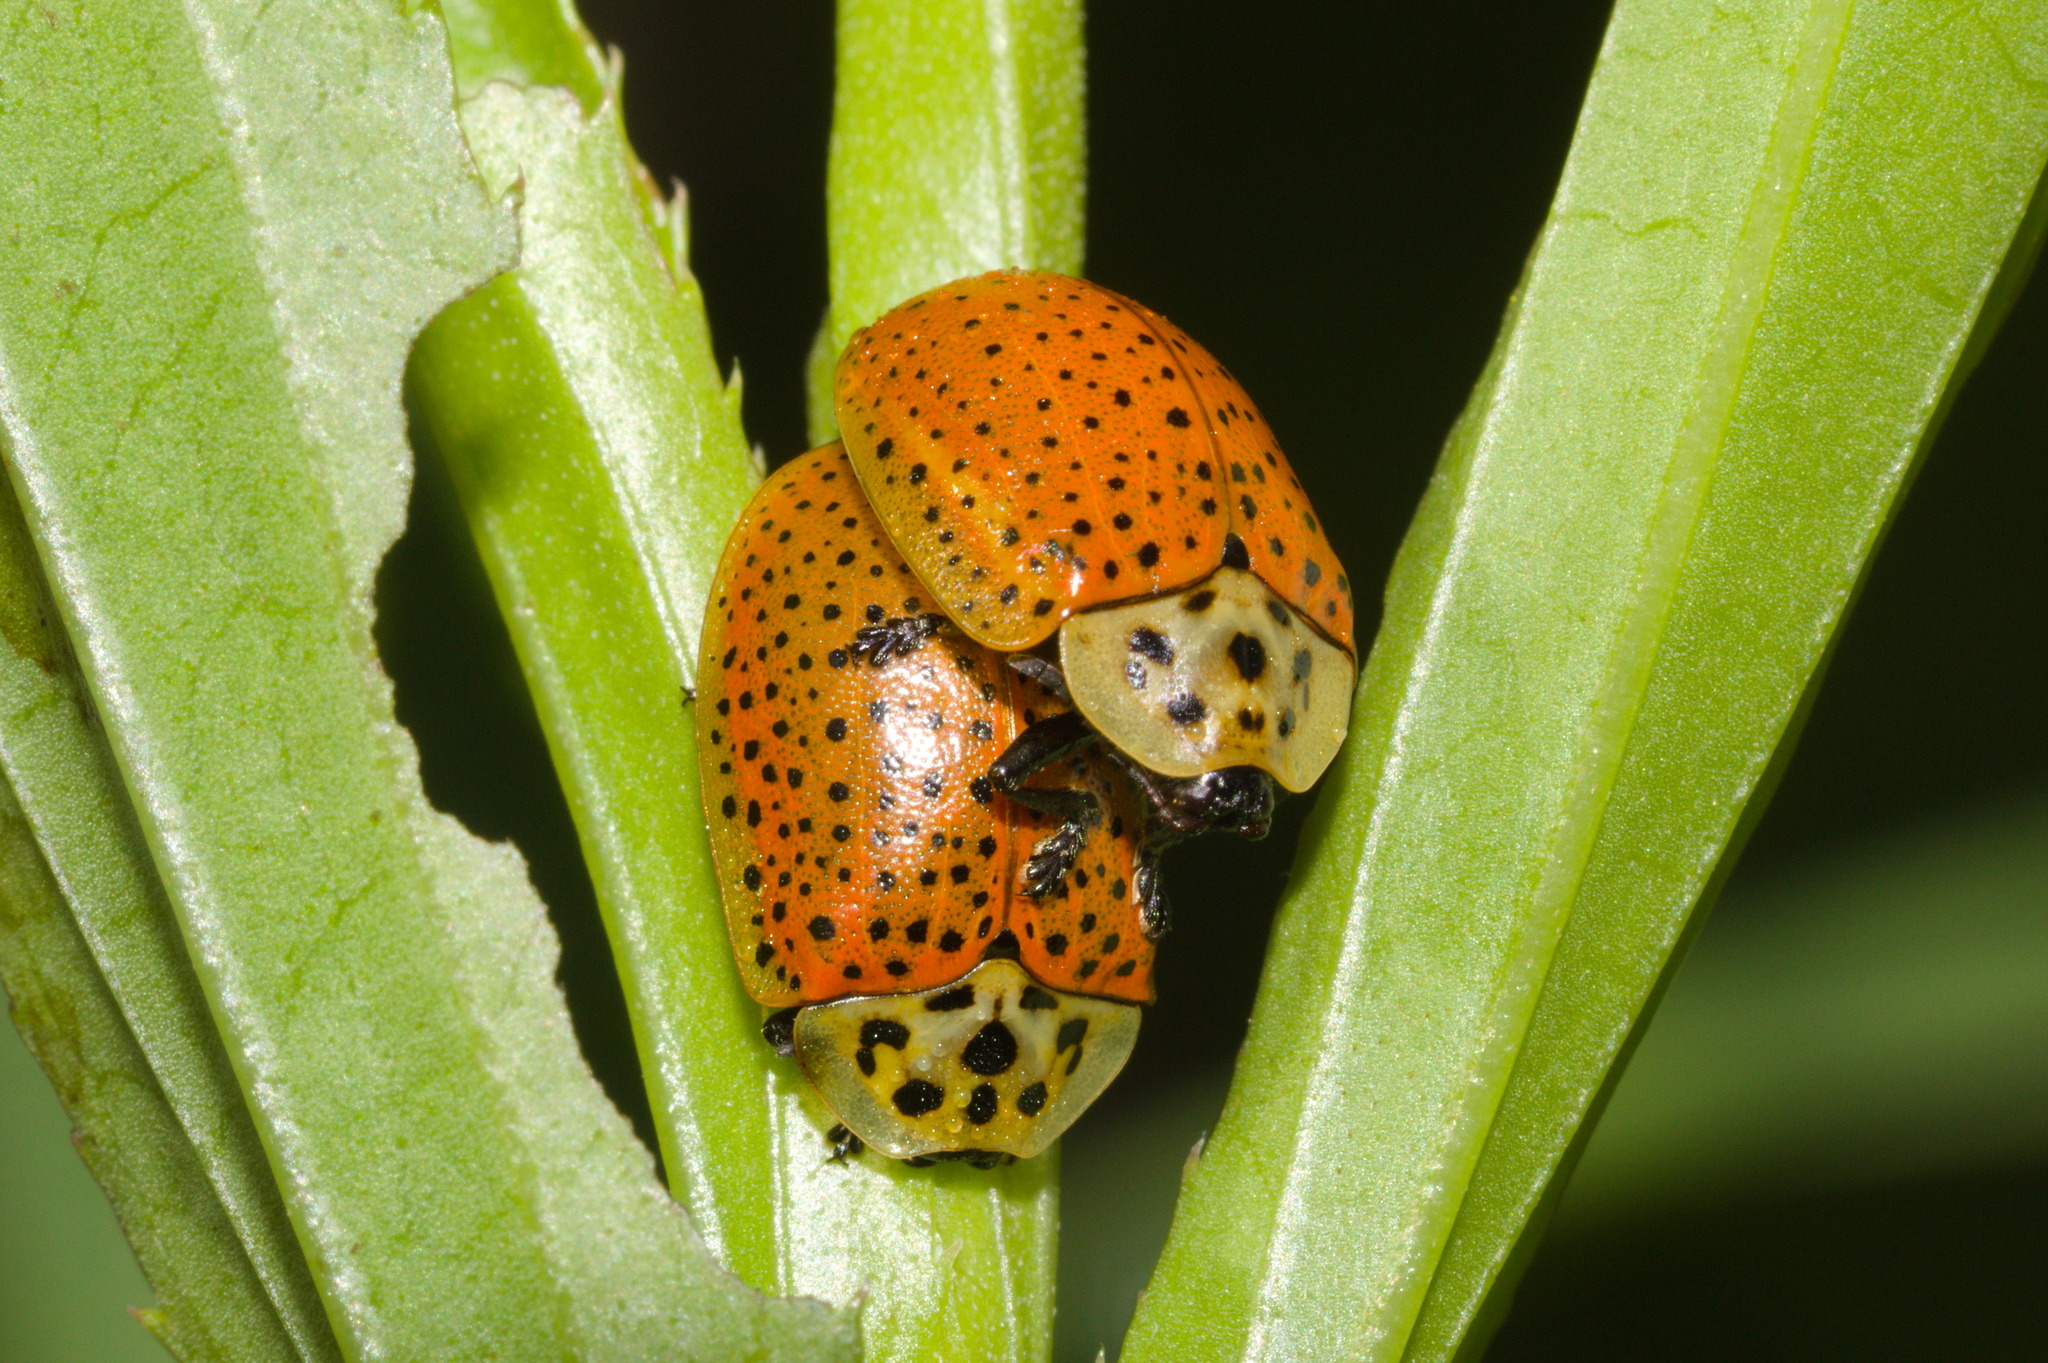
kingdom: Animalia
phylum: Arthropoda
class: Insecta
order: Coleoptera
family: Chrysomelidae
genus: Anacassis
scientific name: Anacassis cribrum
